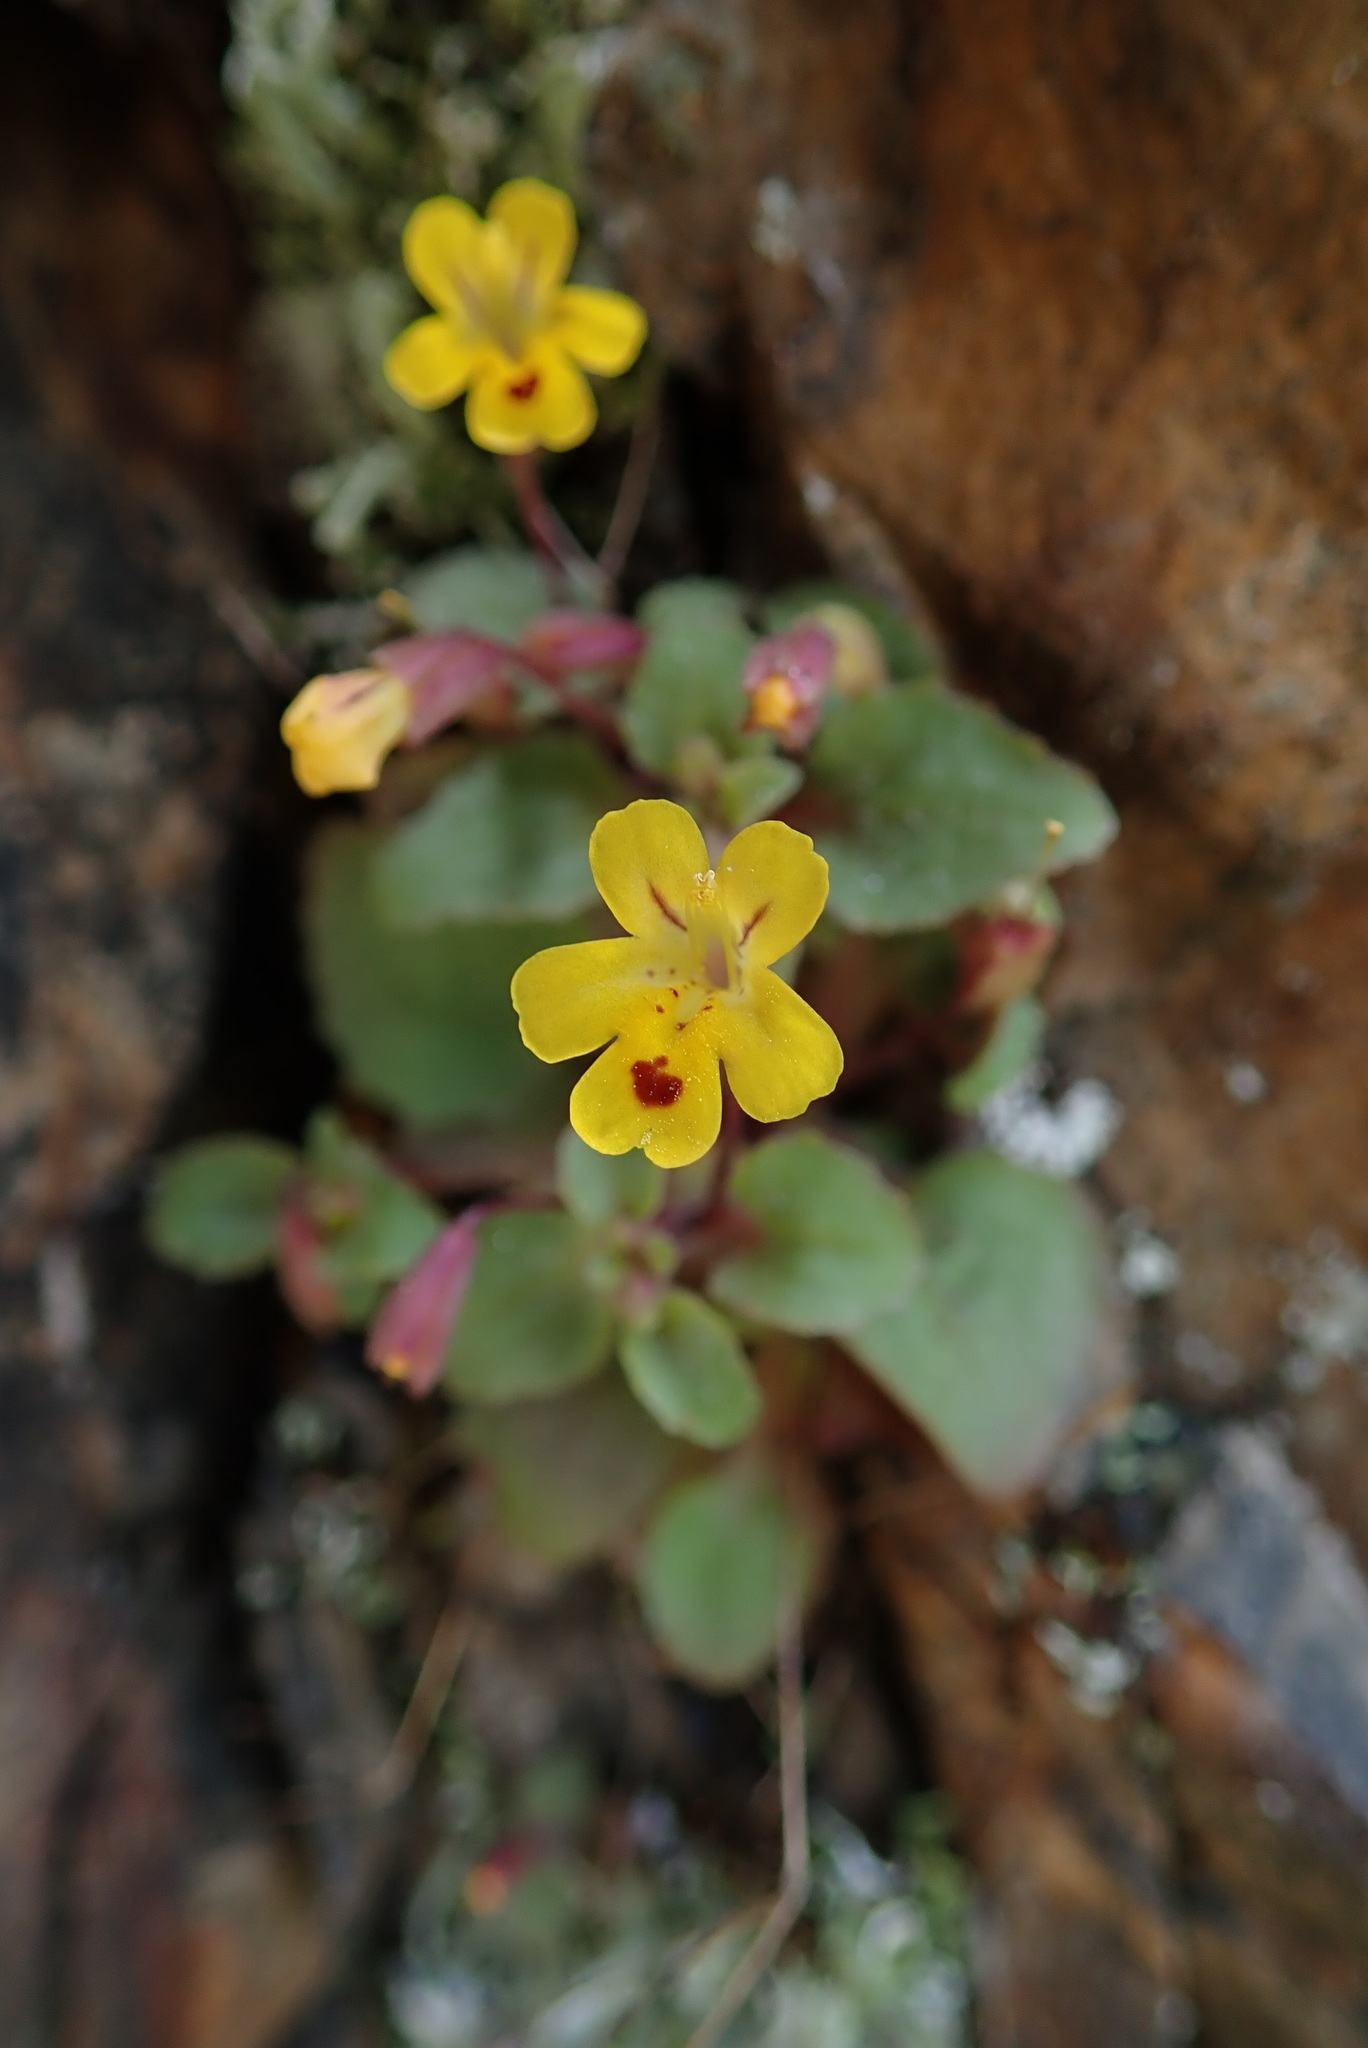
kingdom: Plantae
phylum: Tracheophyta
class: Magnoliopsida
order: Lamiales
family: Phrymaceae
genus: Erythranthe
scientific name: Erythranthe alsinoides
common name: Chickweed monkeyflower
